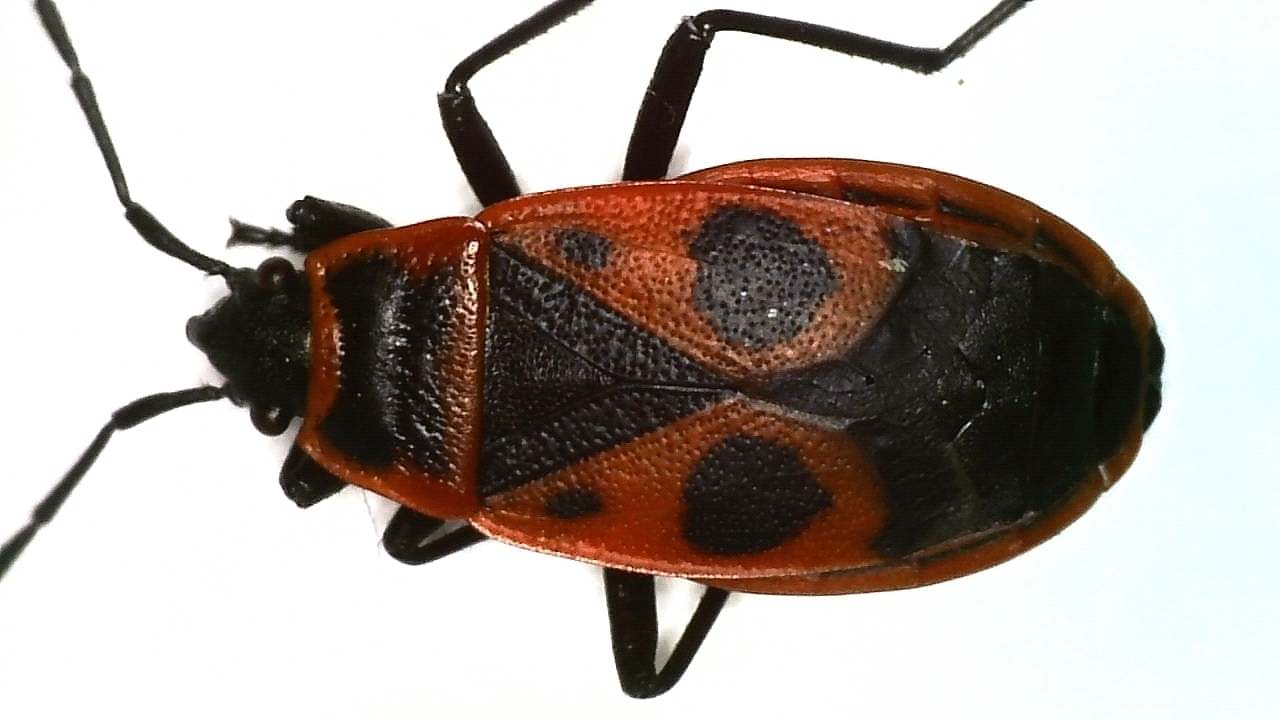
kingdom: Animalia
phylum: Arthropoda
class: Insecta
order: Hemiptera
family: Pyrrhocoridae
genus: Pyrrhocoris
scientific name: Pyrrhocoris apterus
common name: Firebug
